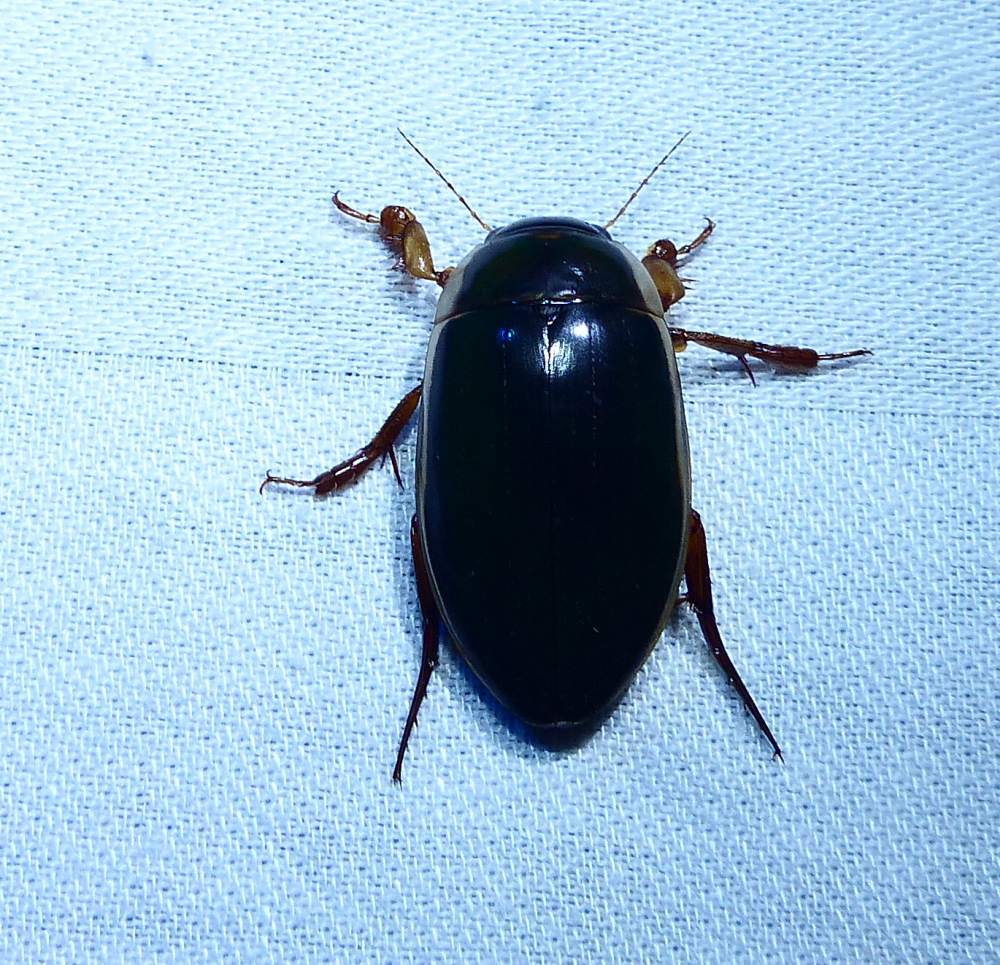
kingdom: Animalia
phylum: Arthropoda
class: Insecta
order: Coleoptera
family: Dytiscidae
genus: Dytiscus
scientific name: Dytiscus
